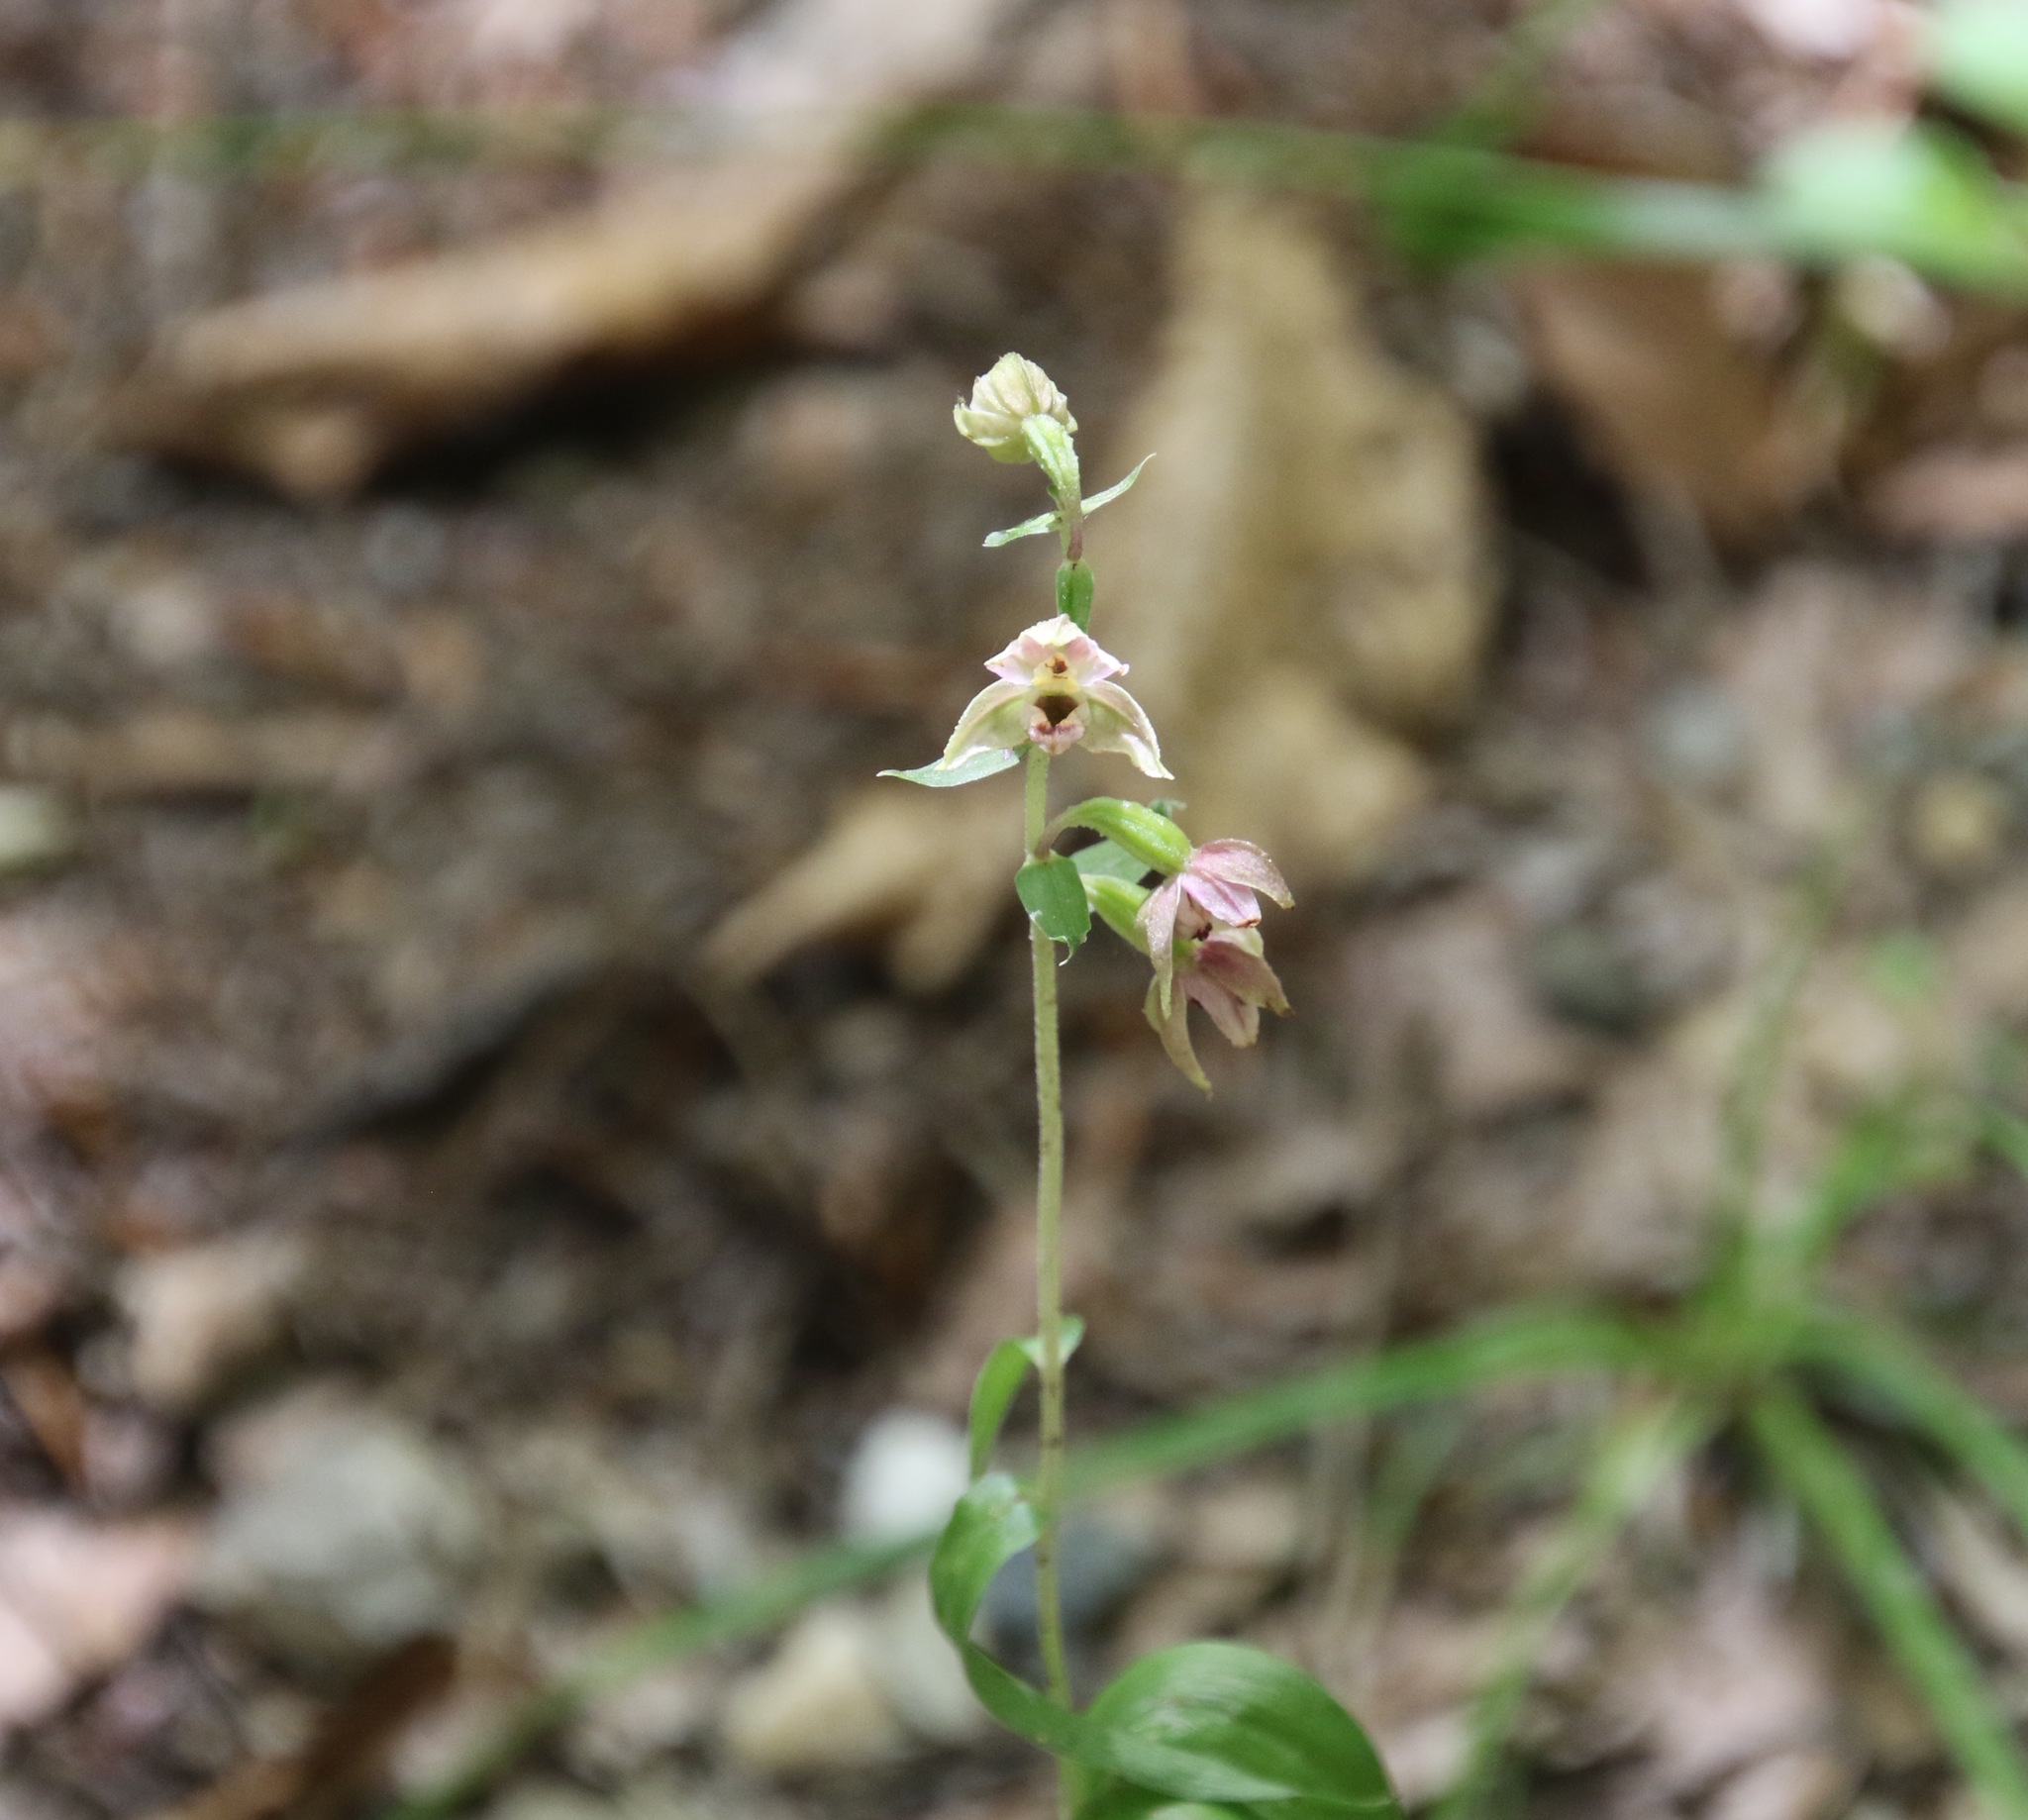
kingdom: Plantae
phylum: Tracheophyta
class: Liliopsida
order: Asparagales
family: Orchidaceae
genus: Epipactis
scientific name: Epipactis helleborine
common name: Broad-leaved helleborine
